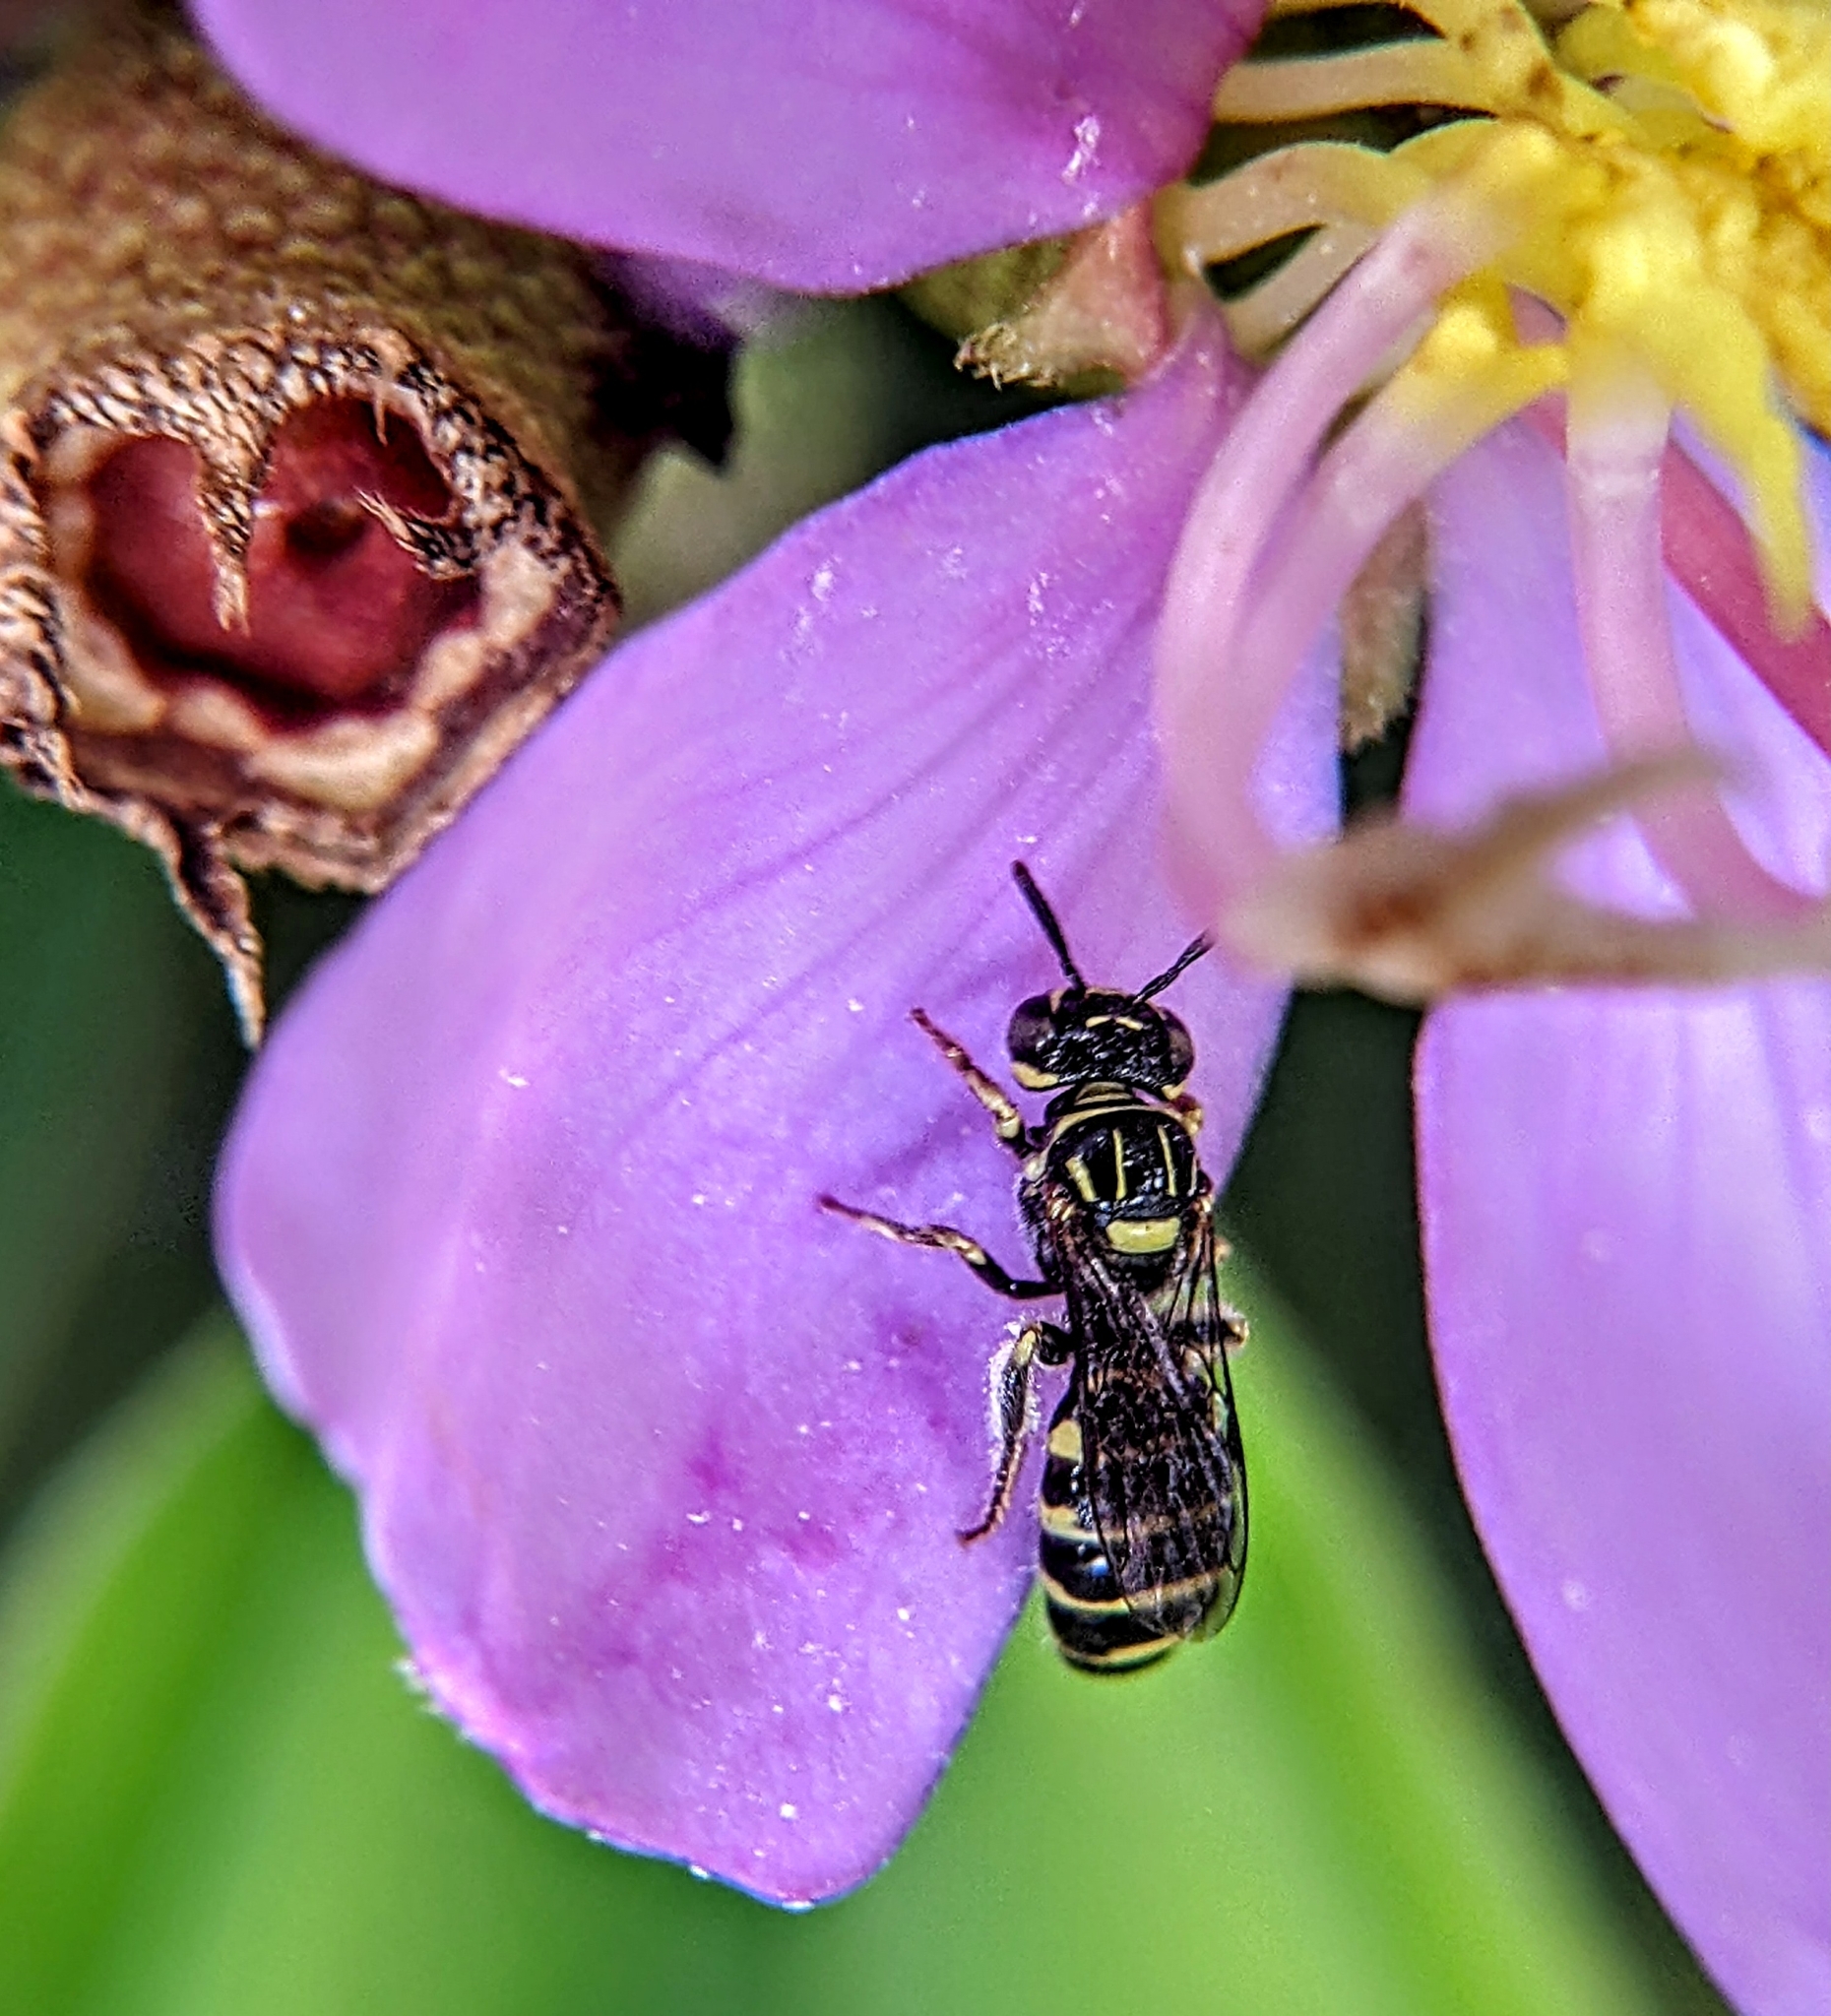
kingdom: Animalia
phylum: Arthropoda
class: Insecta
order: Hymenoptera
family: Apidae
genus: Ceratina
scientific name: Ceratina lieftincki
